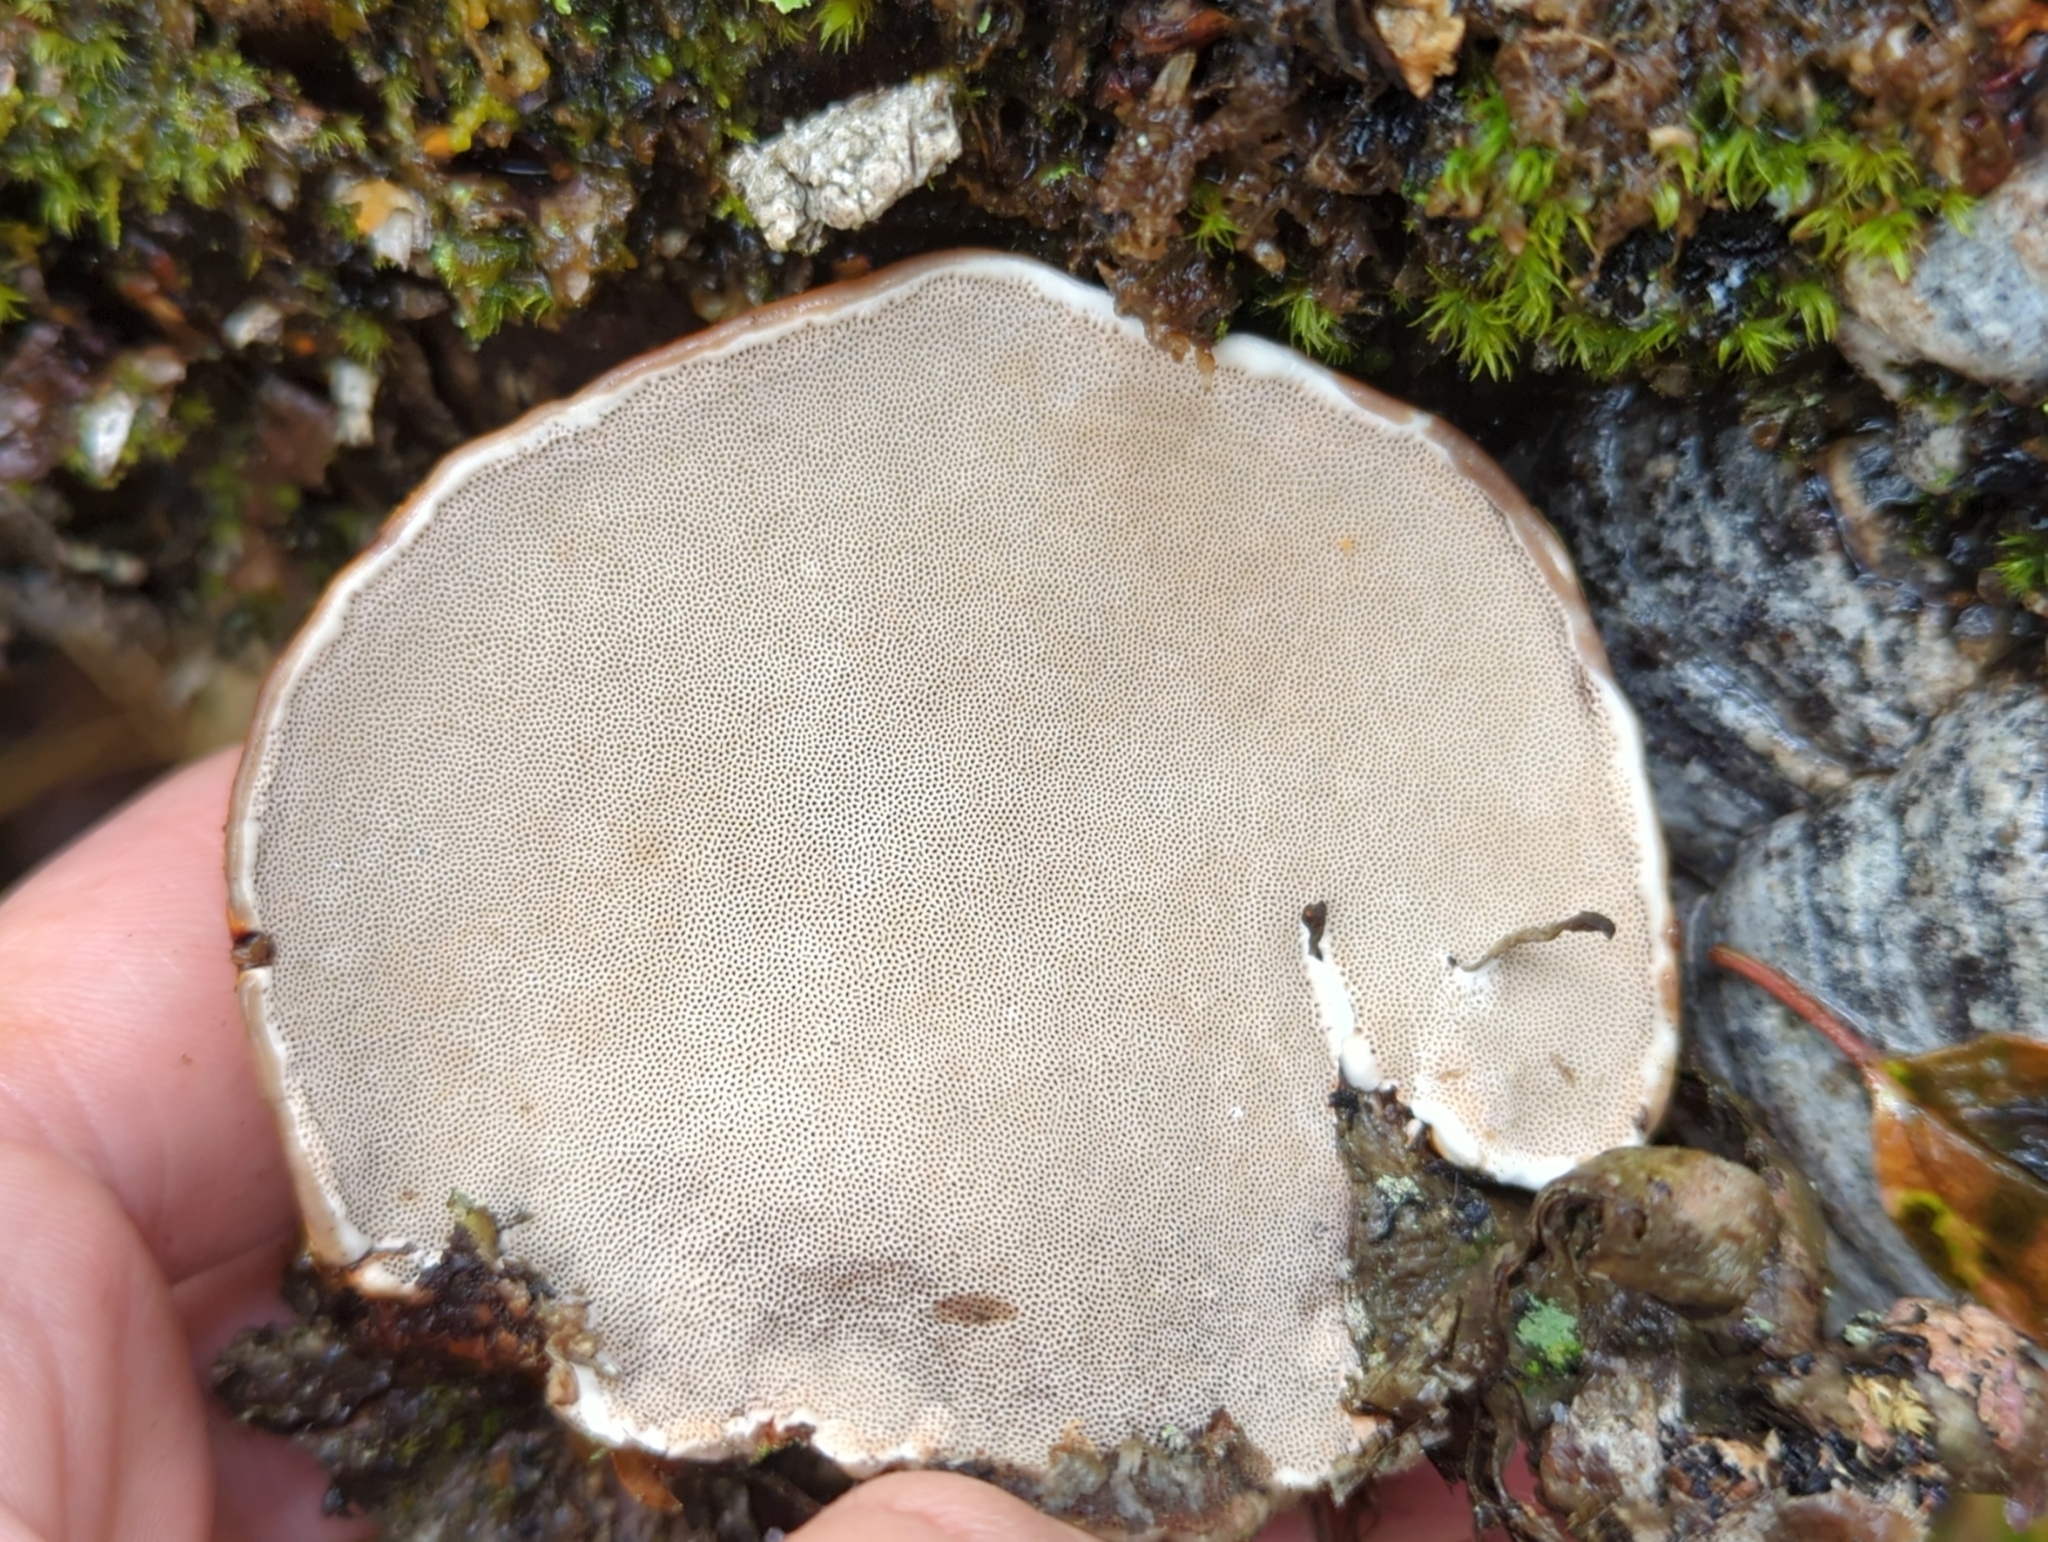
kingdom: Fungi
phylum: Basidiomycota
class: Agaricomycetes
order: Polyporales
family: Polyporaceae
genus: Fomes
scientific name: Fomes fomentarius
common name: Hoof fungus
